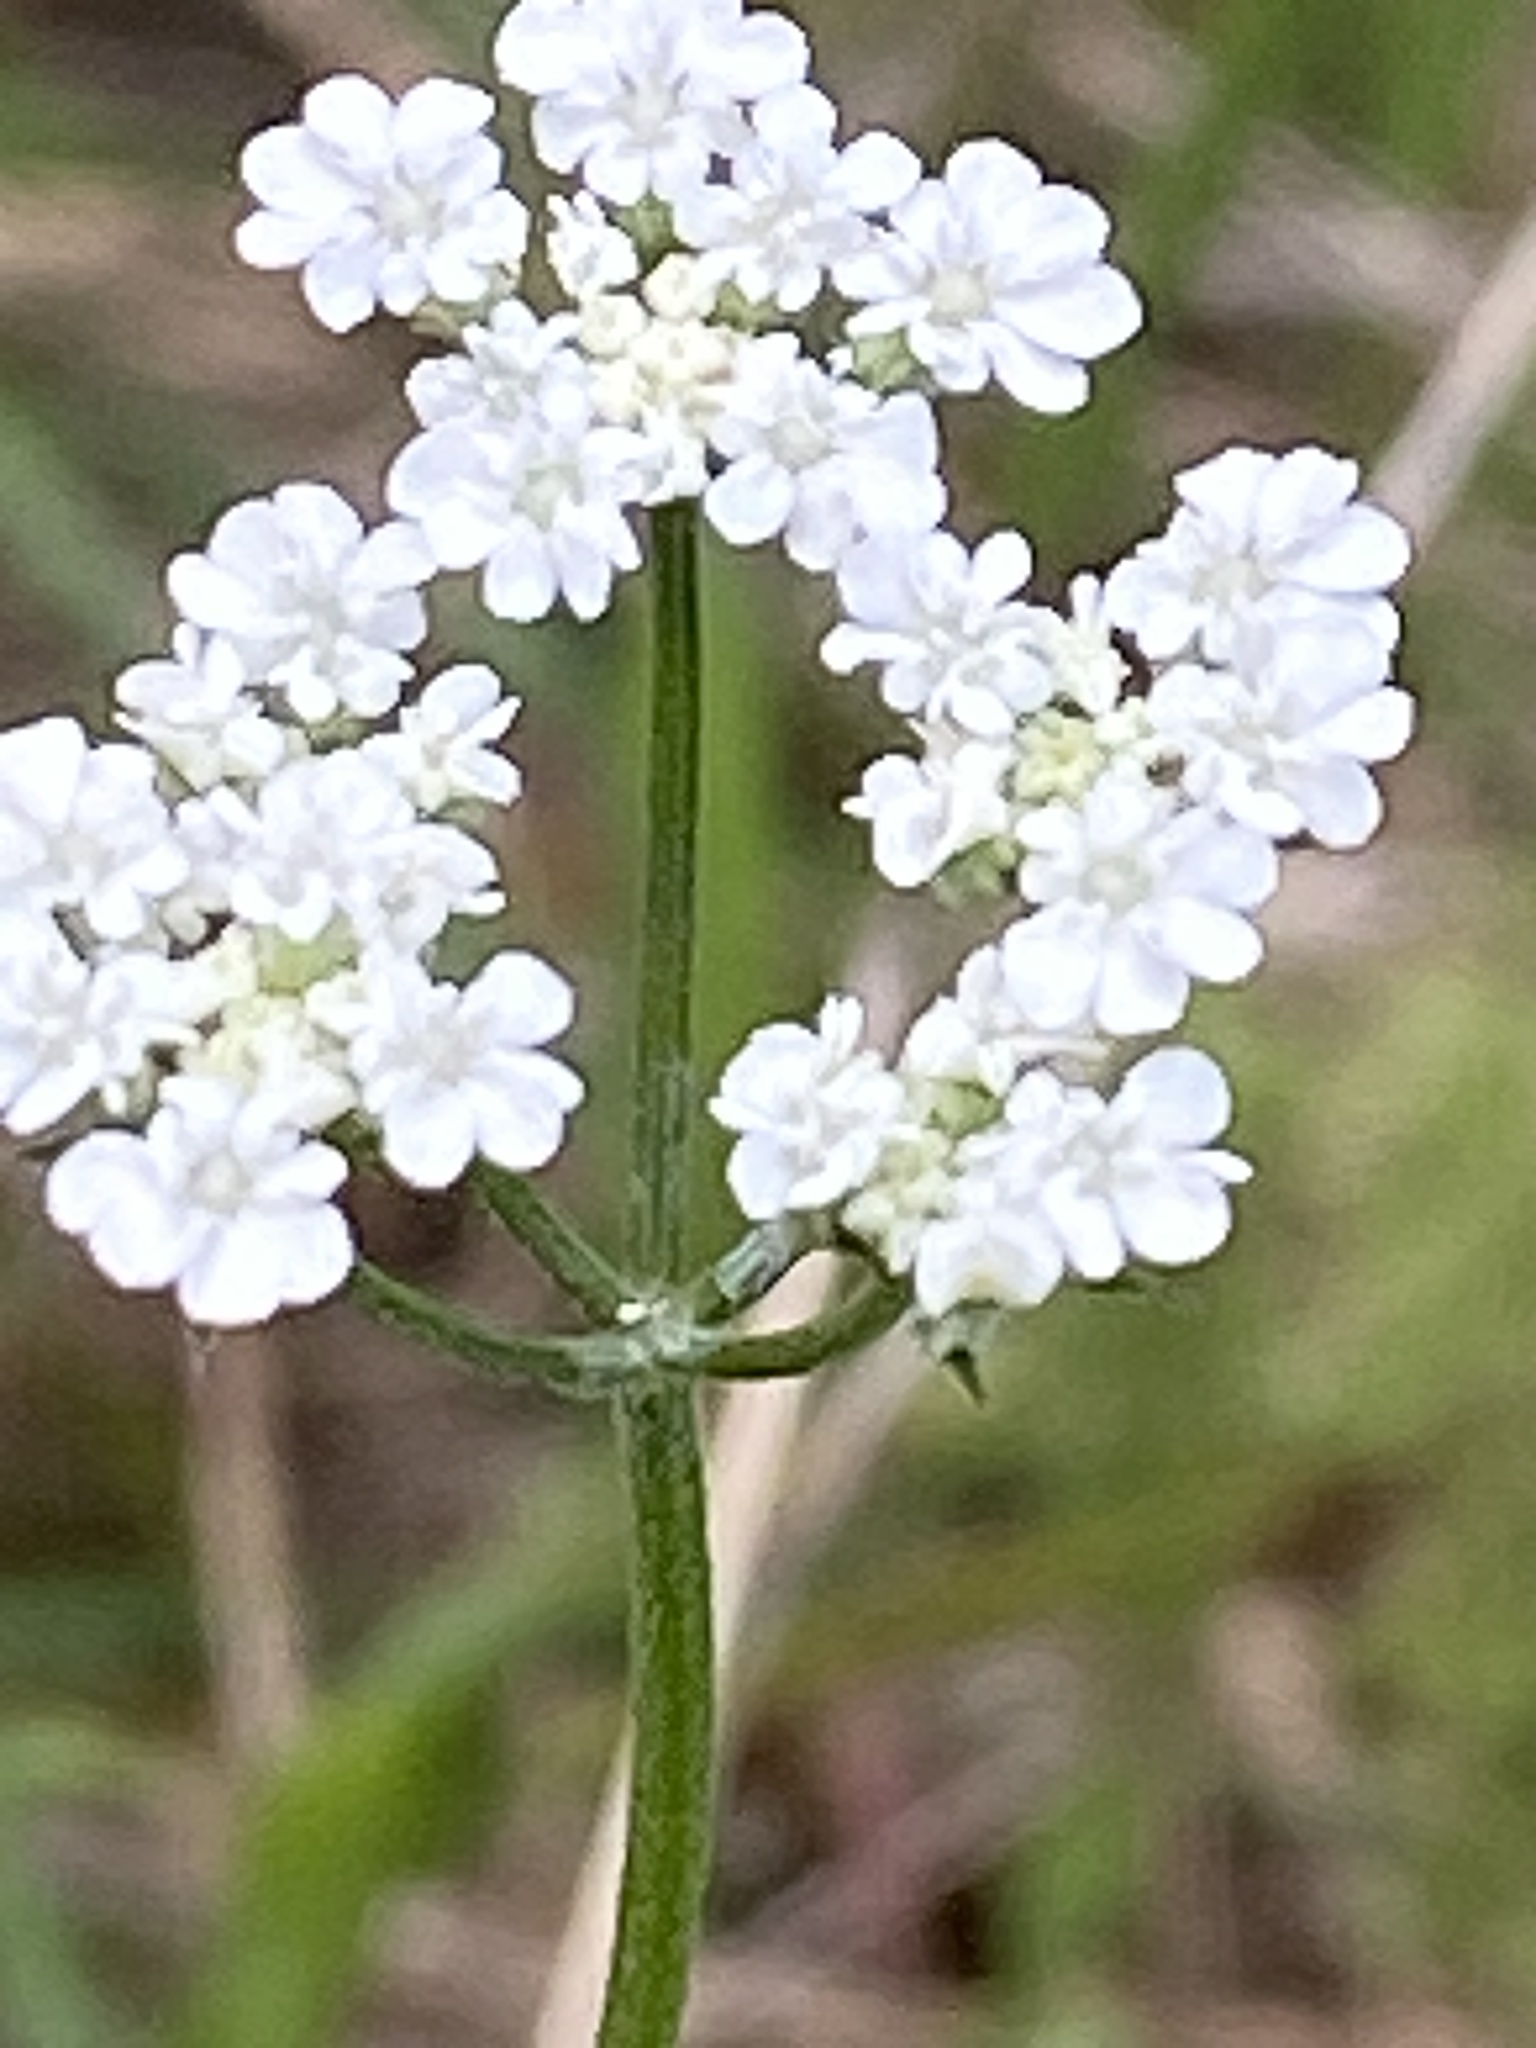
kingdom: Plantae
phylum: Tracheophyta
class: Magnoliopsida
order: Apiales
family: Apiaceae
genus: Torilis
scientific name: Torilis arvensis
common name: Spreading hedge-parsley
